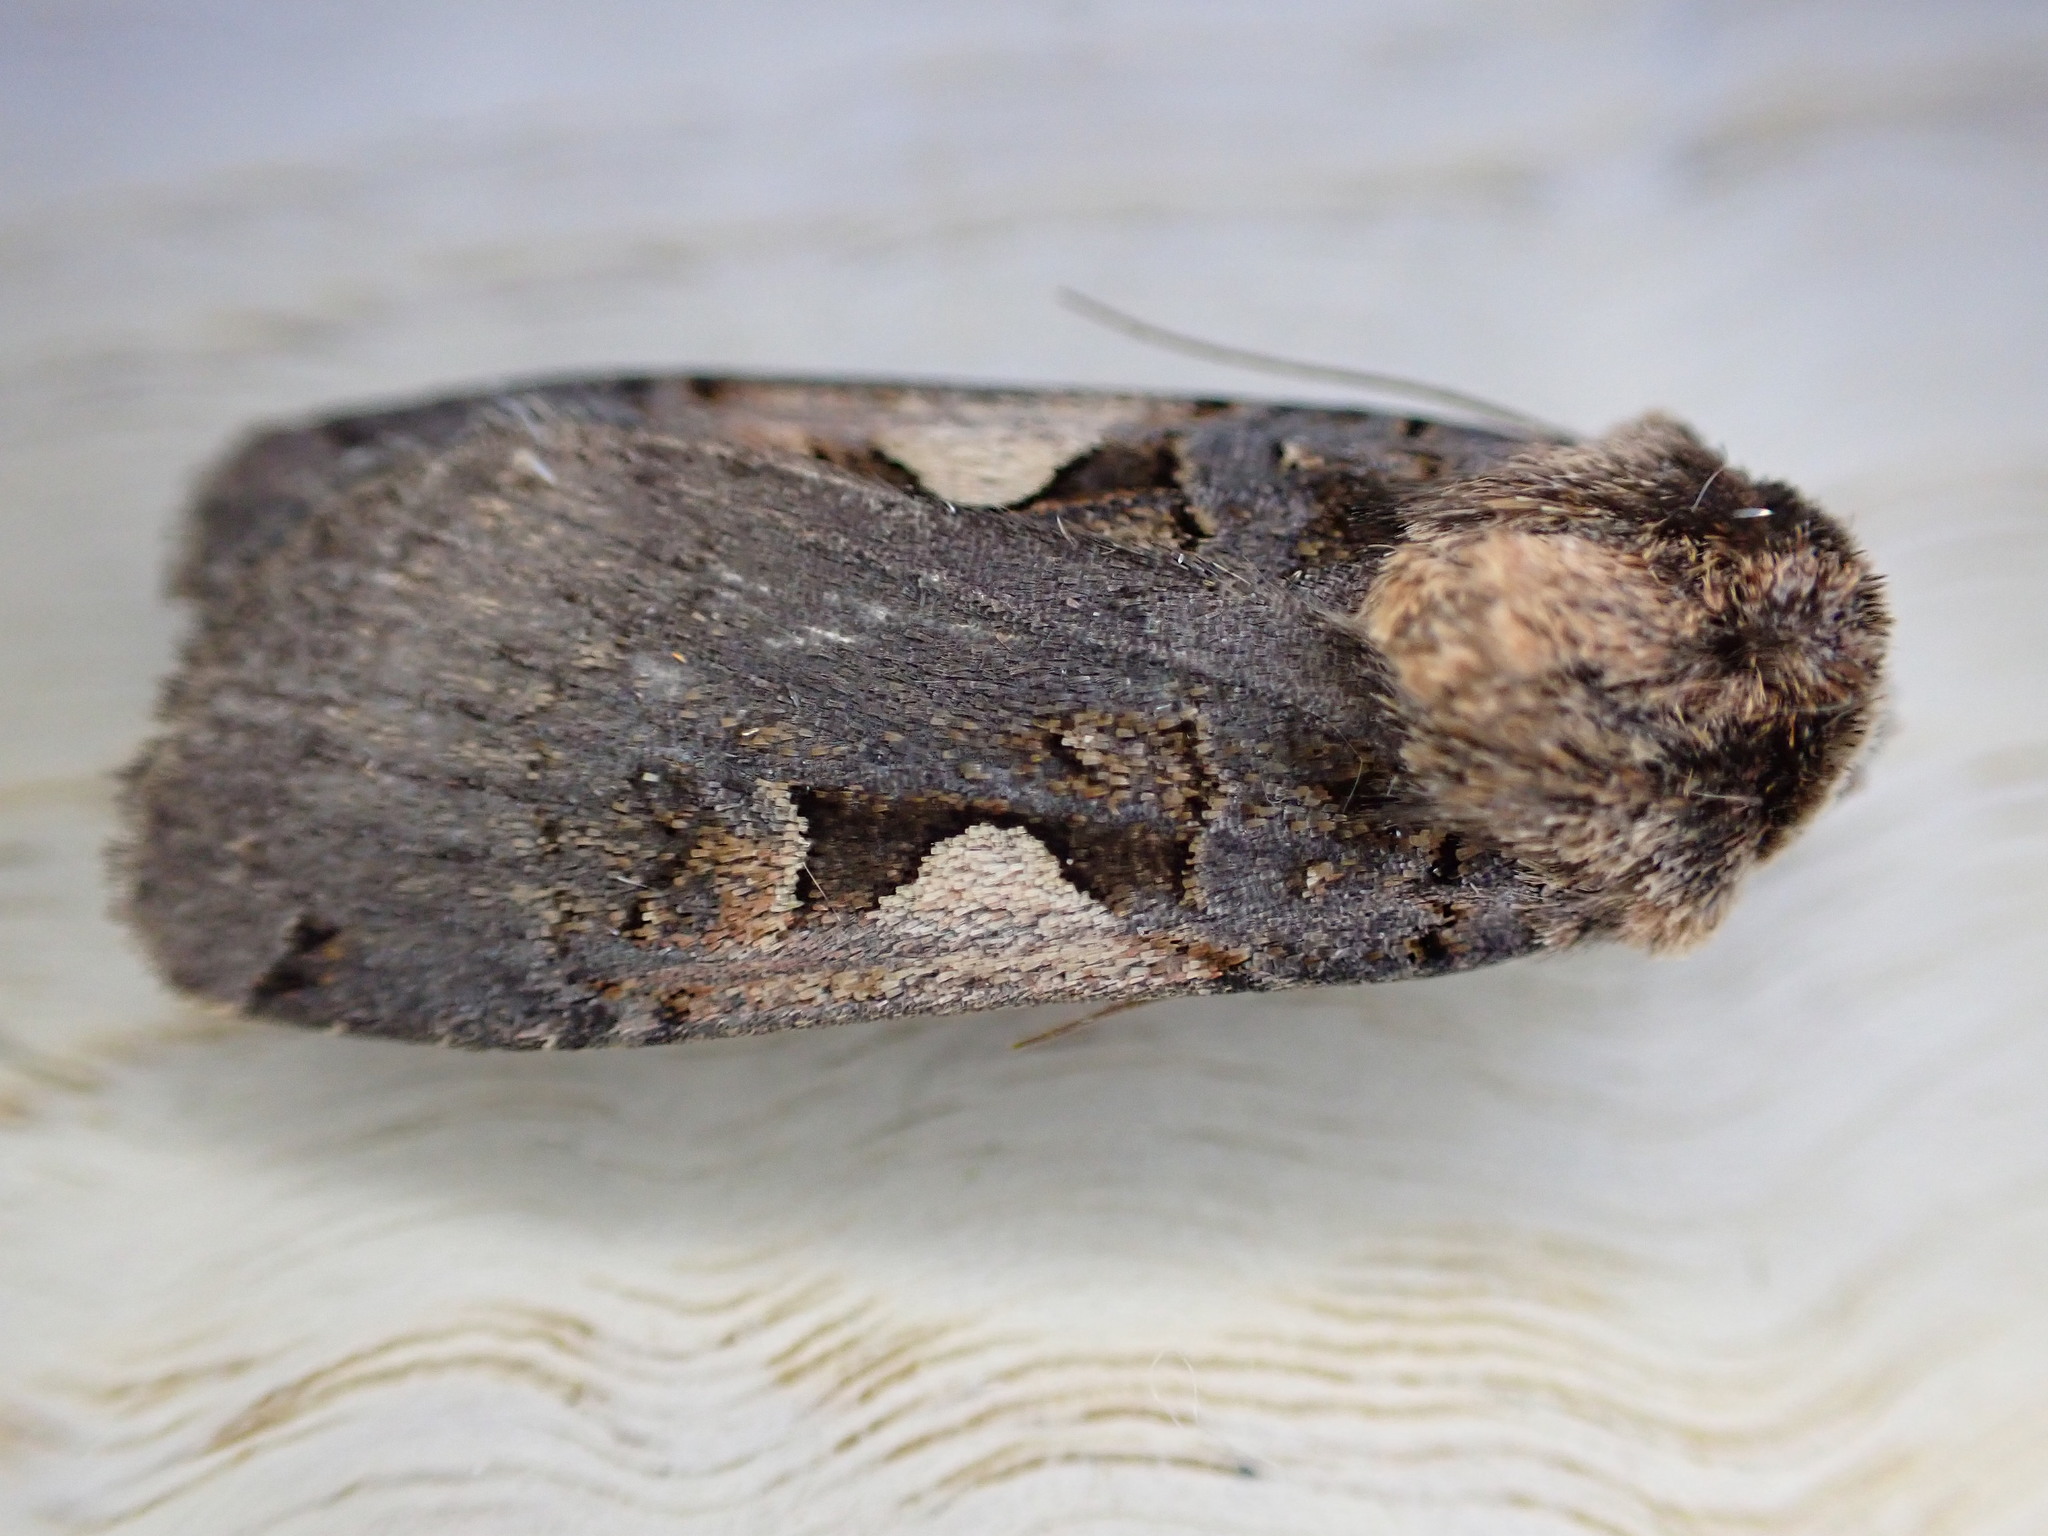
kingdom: Animalia
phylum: Arthropoda
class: Insecta
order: Lepidoptera
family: Noctuidae
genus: Xestia
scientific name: Xestia c-nigrum
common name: Setaceous hebrew character
